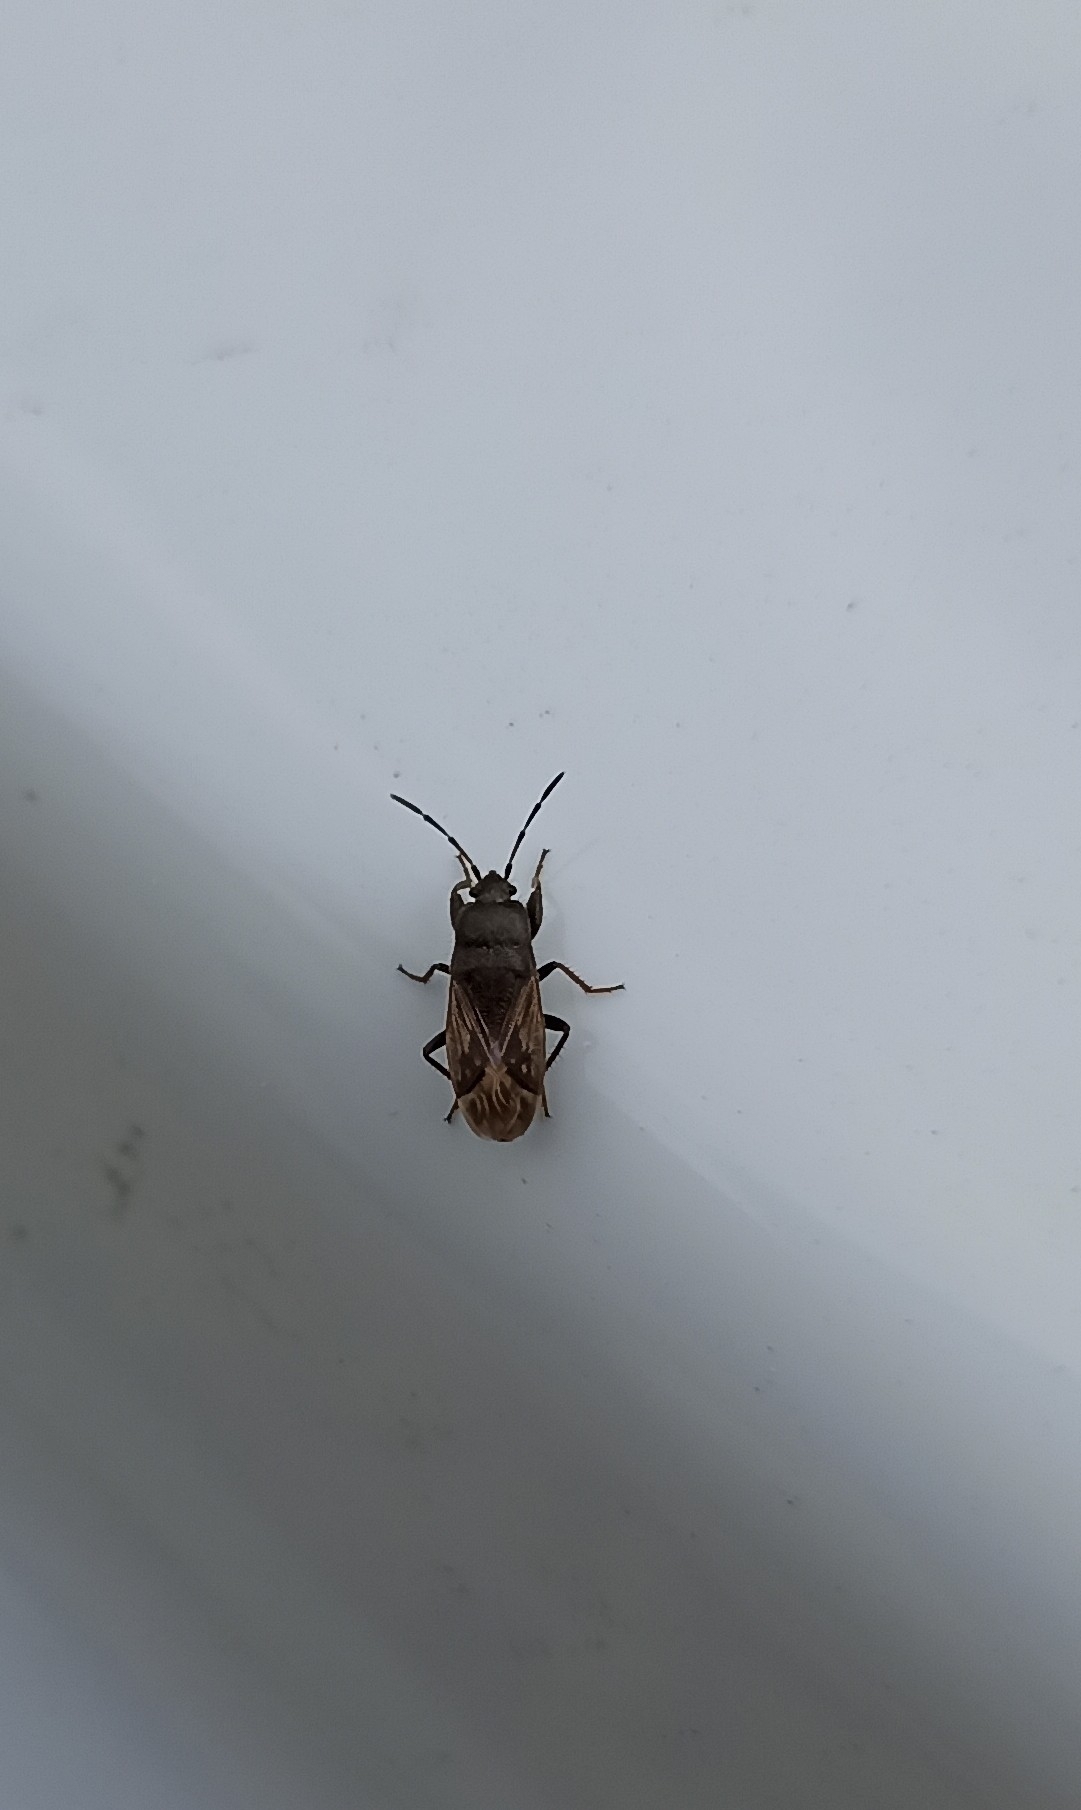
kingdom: Animalia
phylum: Arthropoda
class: Insecta
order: Hemiptera
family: Rhyparochromidae
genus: Megalonotus
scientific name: Megalonotus sabulicola
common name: Seed bug
